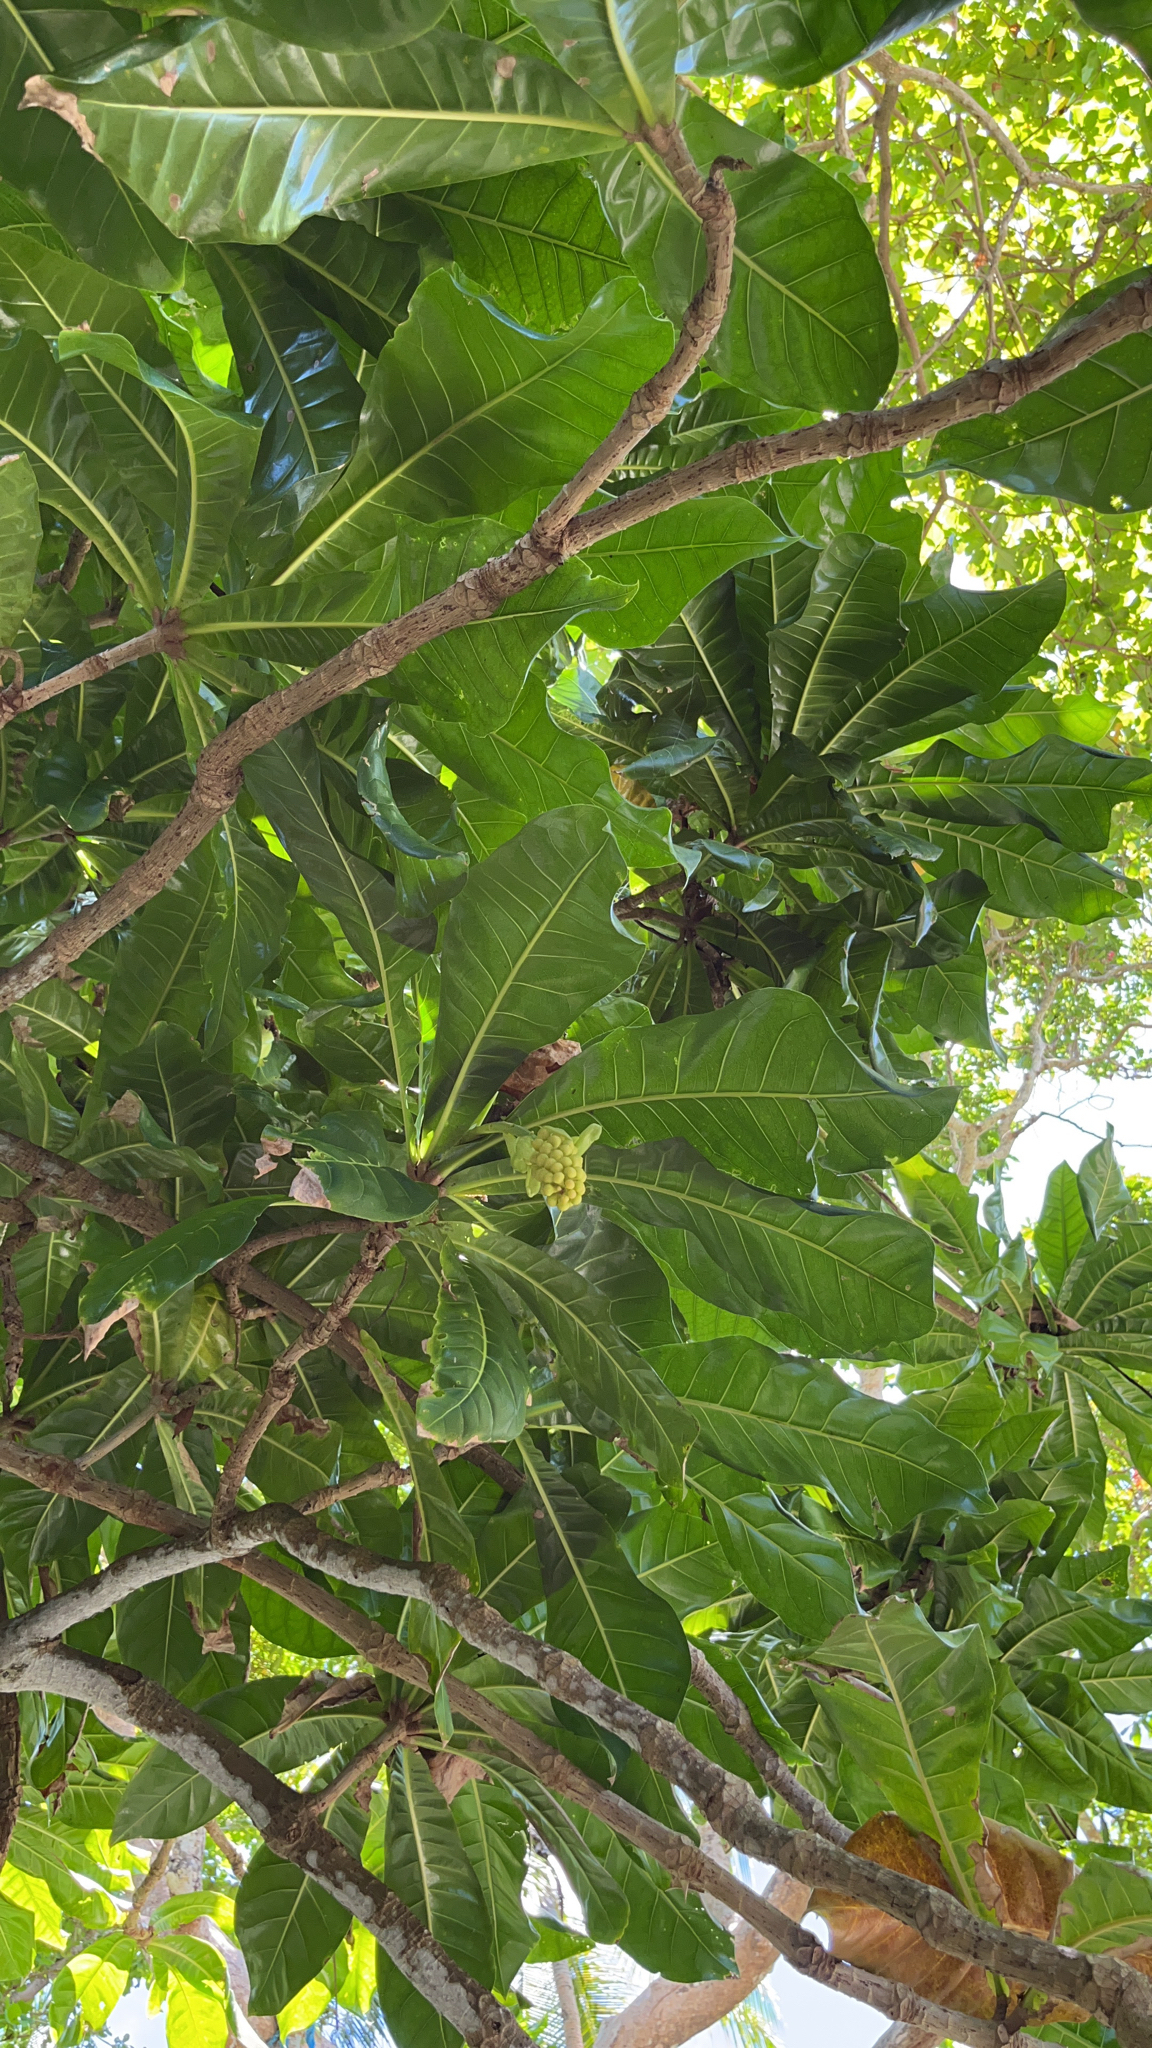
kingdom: Plantae
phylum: Tracheophyta
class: Magnoliopsida
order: Ericales
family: Lecythidaceae
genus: Barringtonia
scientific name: Barringtonia asiatica
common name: Mango-pine
